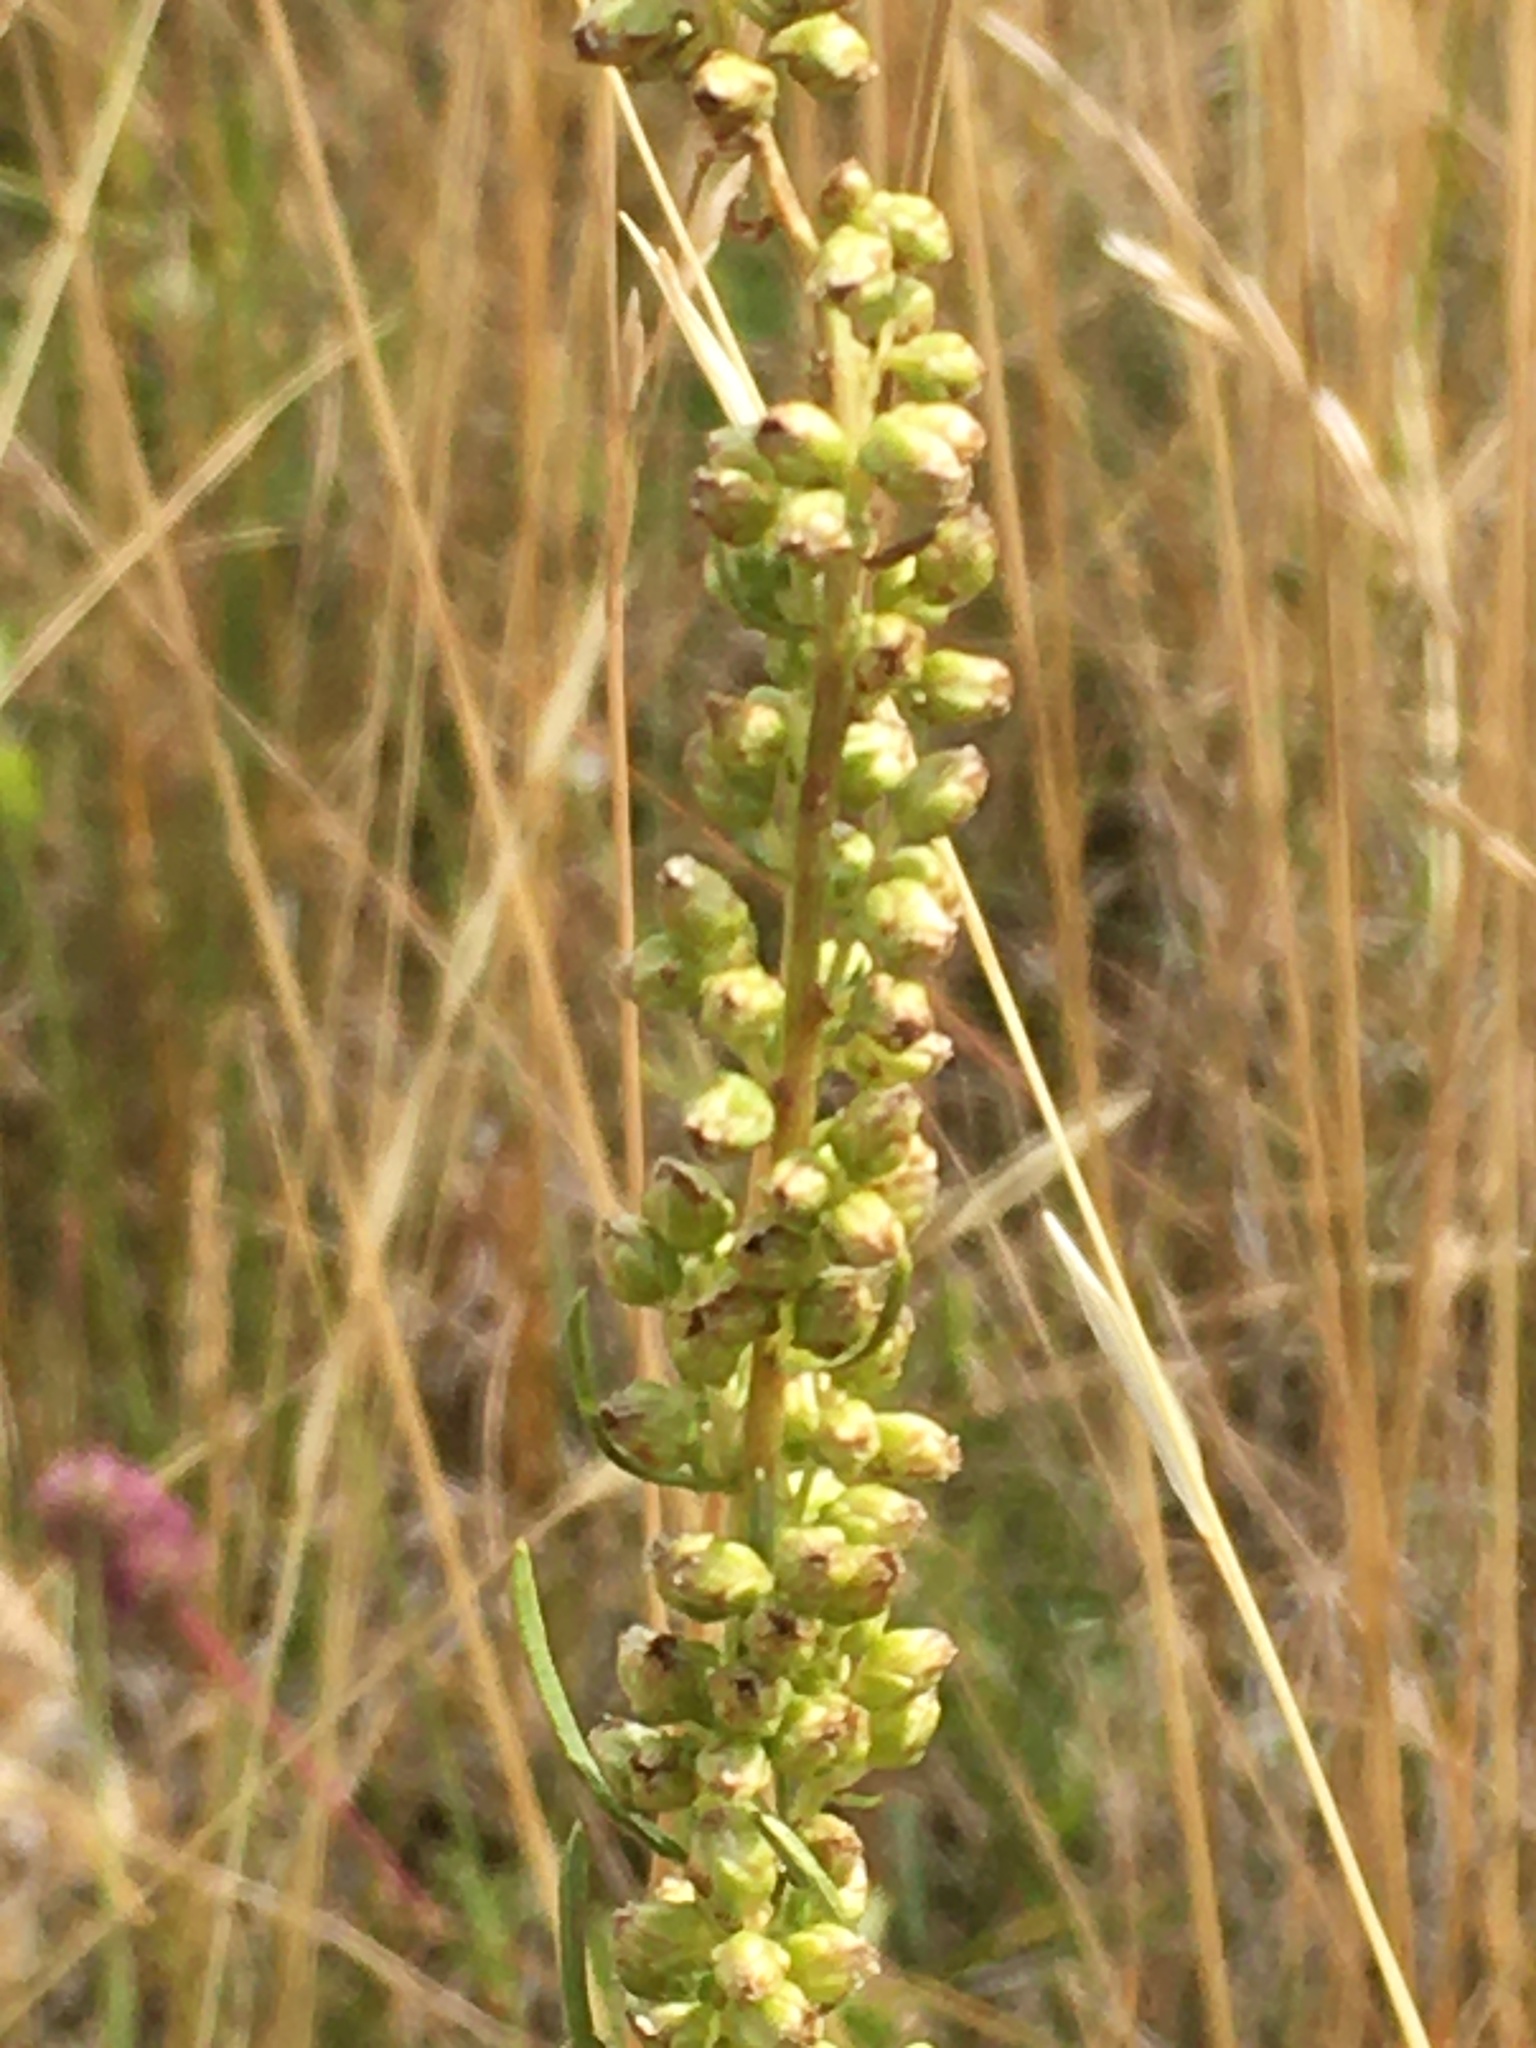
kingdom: Plantae
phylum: Tracheophyta
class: Magnoliopsida
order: Asterales
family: Asteraceae
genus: Artemisia
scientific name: Artemisia campestris
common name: Field wormwood
